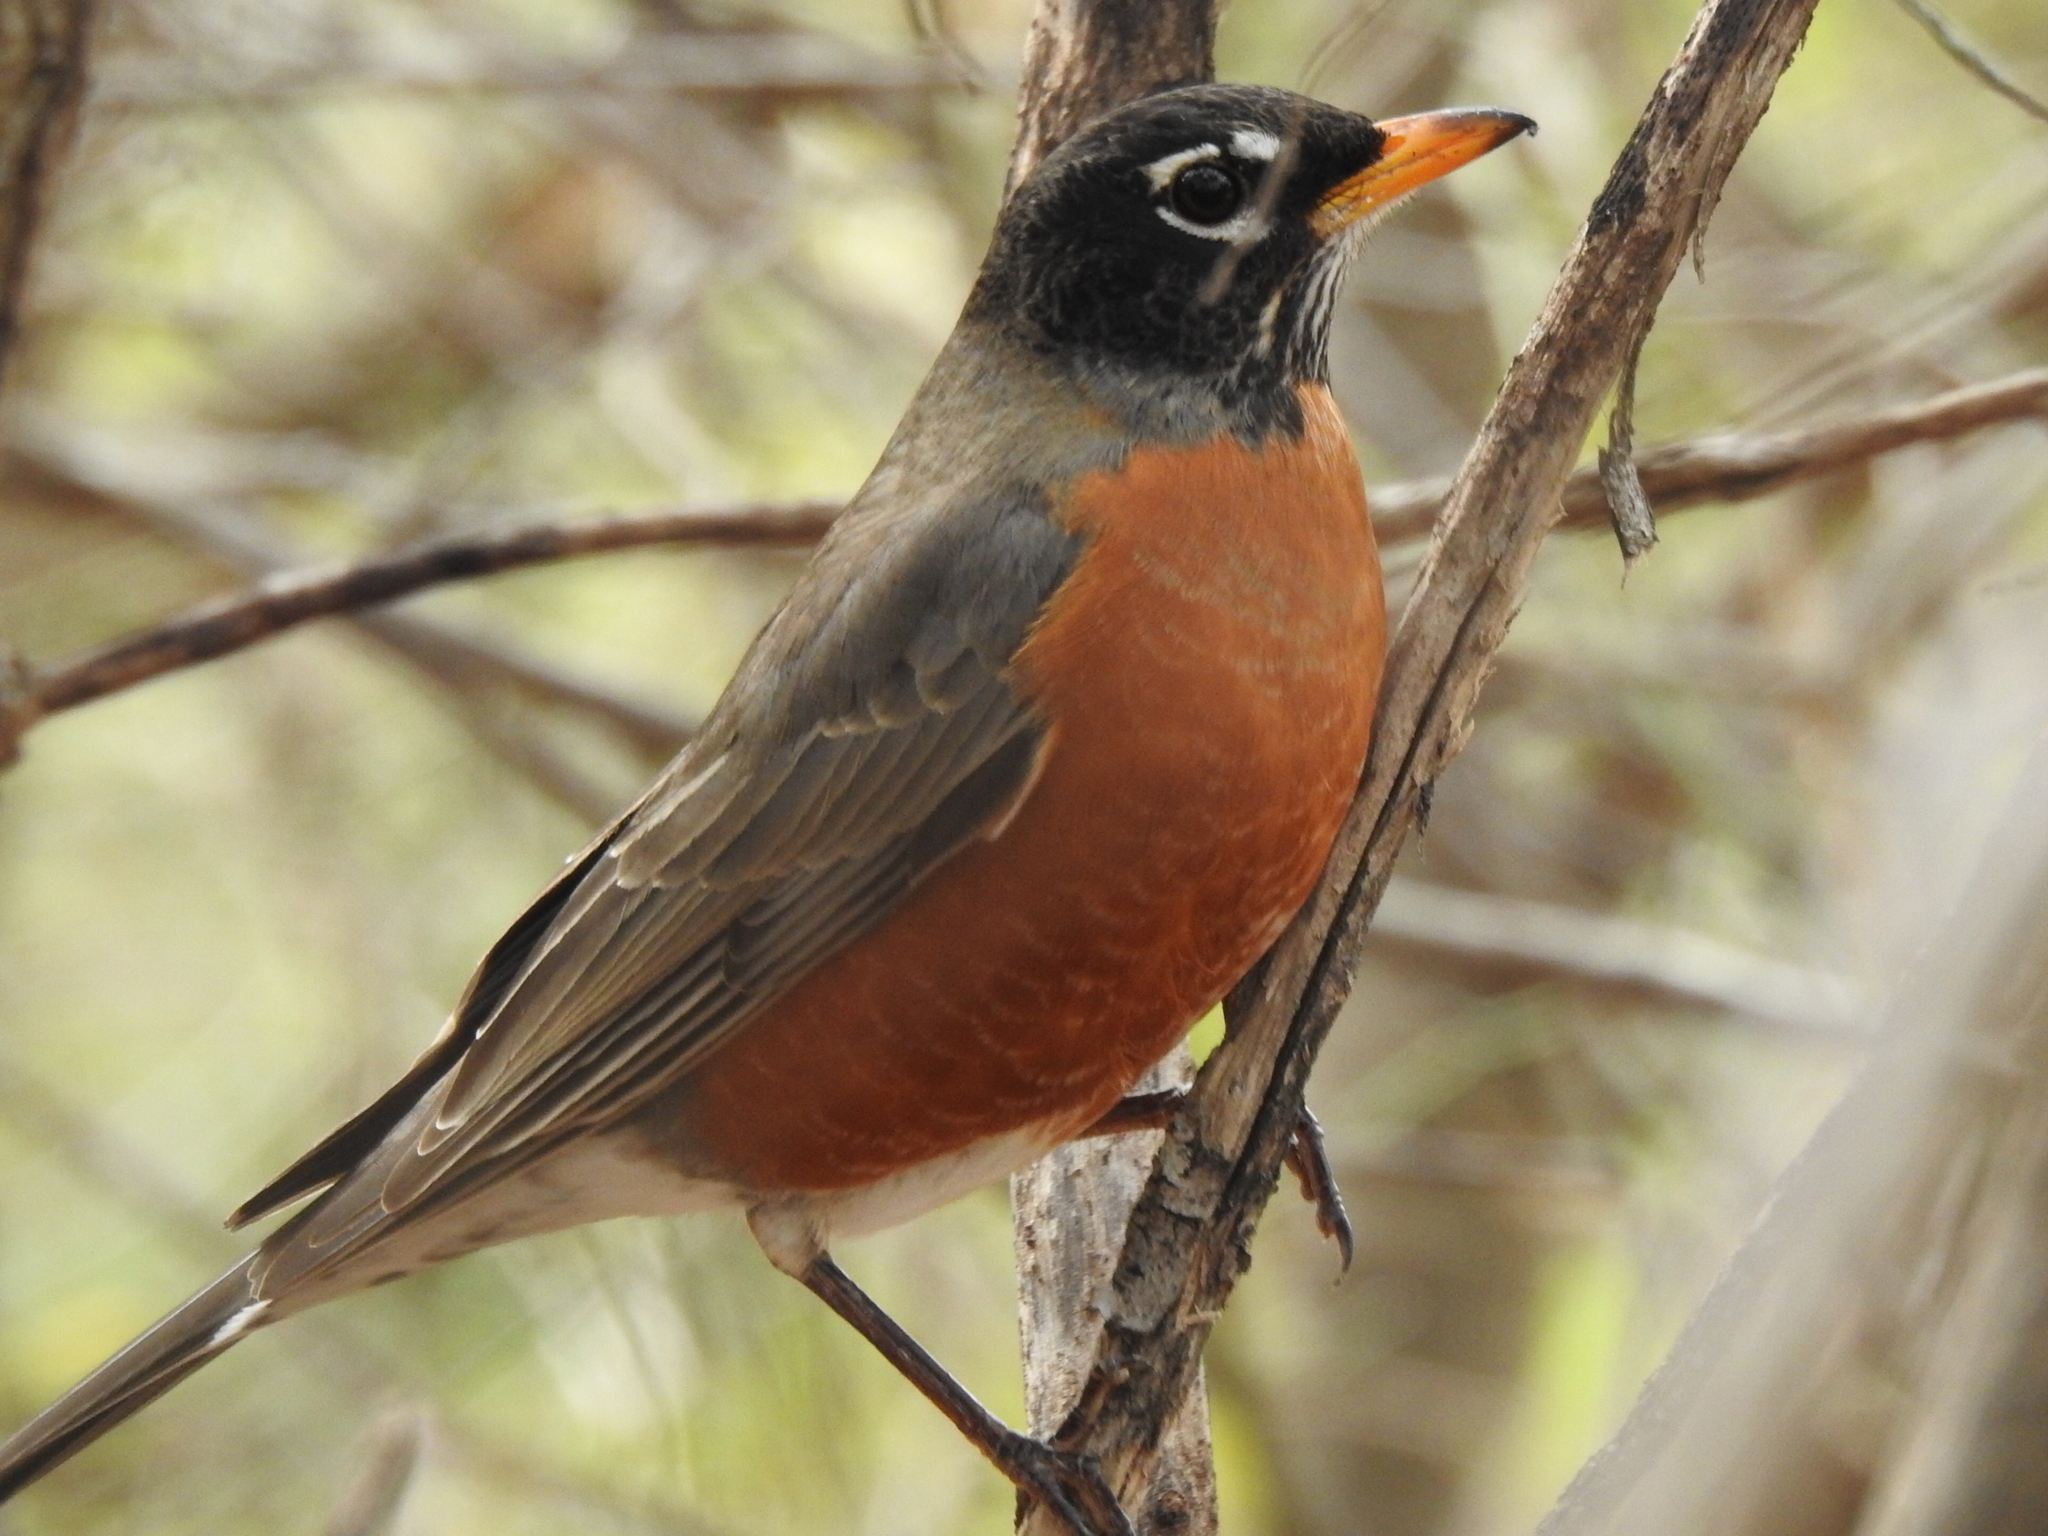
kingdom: Animalia
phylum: Chordata
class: Aves
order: Passeriformes
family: Turdidae
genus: Turdus
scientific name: Turdus migratorius
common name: American robin
